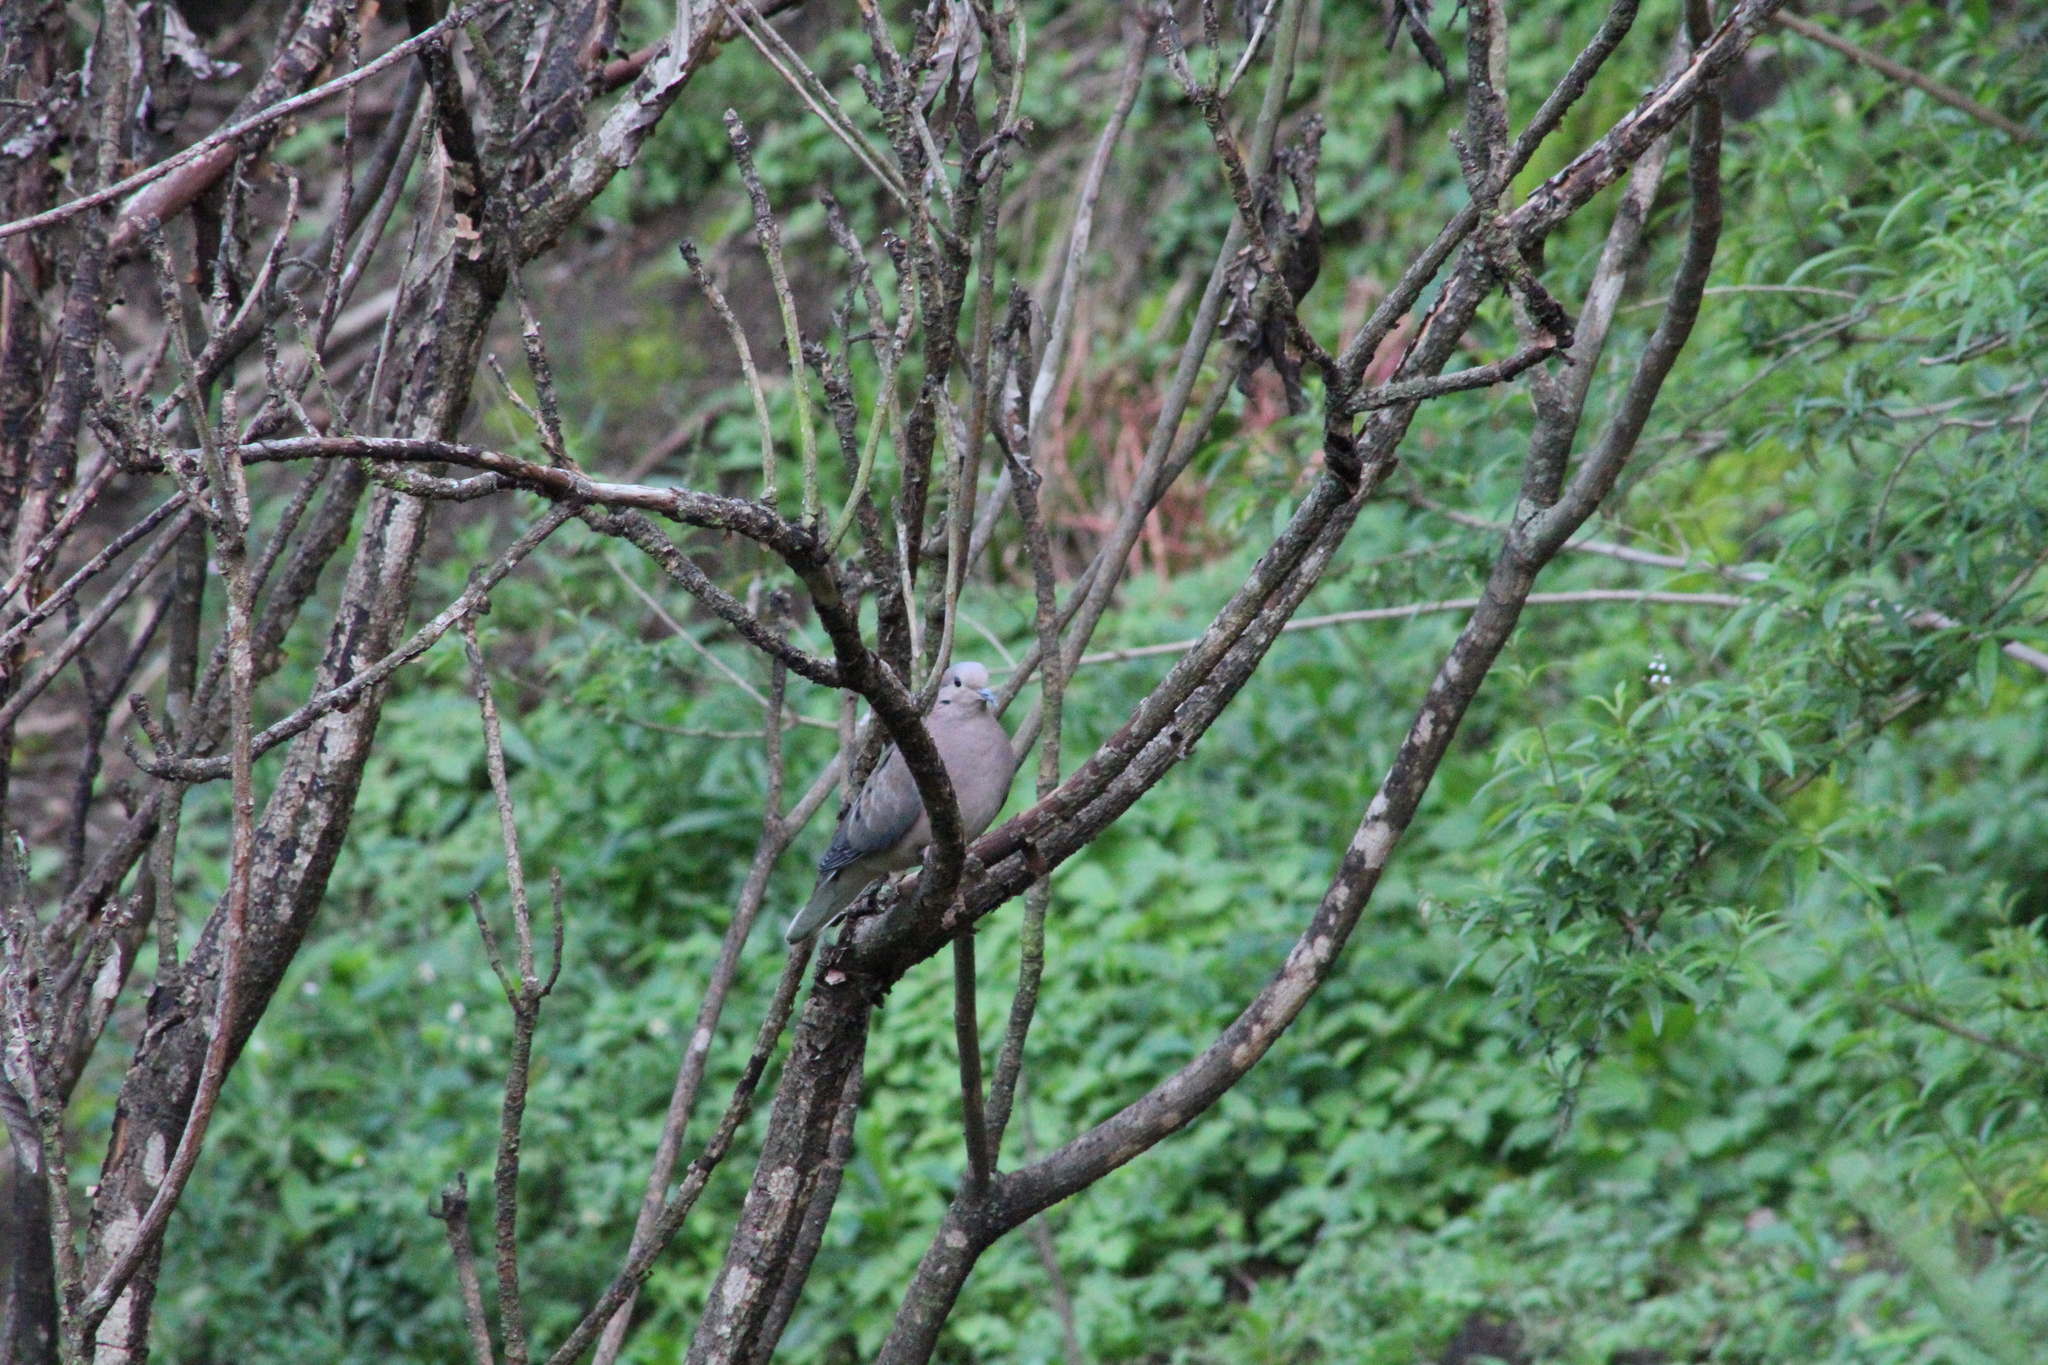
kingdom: Animalia
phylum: Chordata
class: Aves
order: Columbiformes
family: Columbidae
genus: Zenaida
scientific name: Zenaida auriculata
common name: Eared dove
